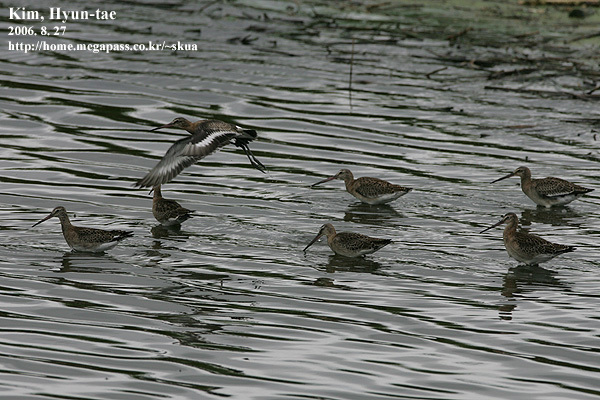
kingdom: Animalia
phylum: Chordata
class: Aves
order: Charadriiformes
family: Scolopacidae
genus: Limosa
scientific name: Limosa limosa
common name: Black-tailed godwit
